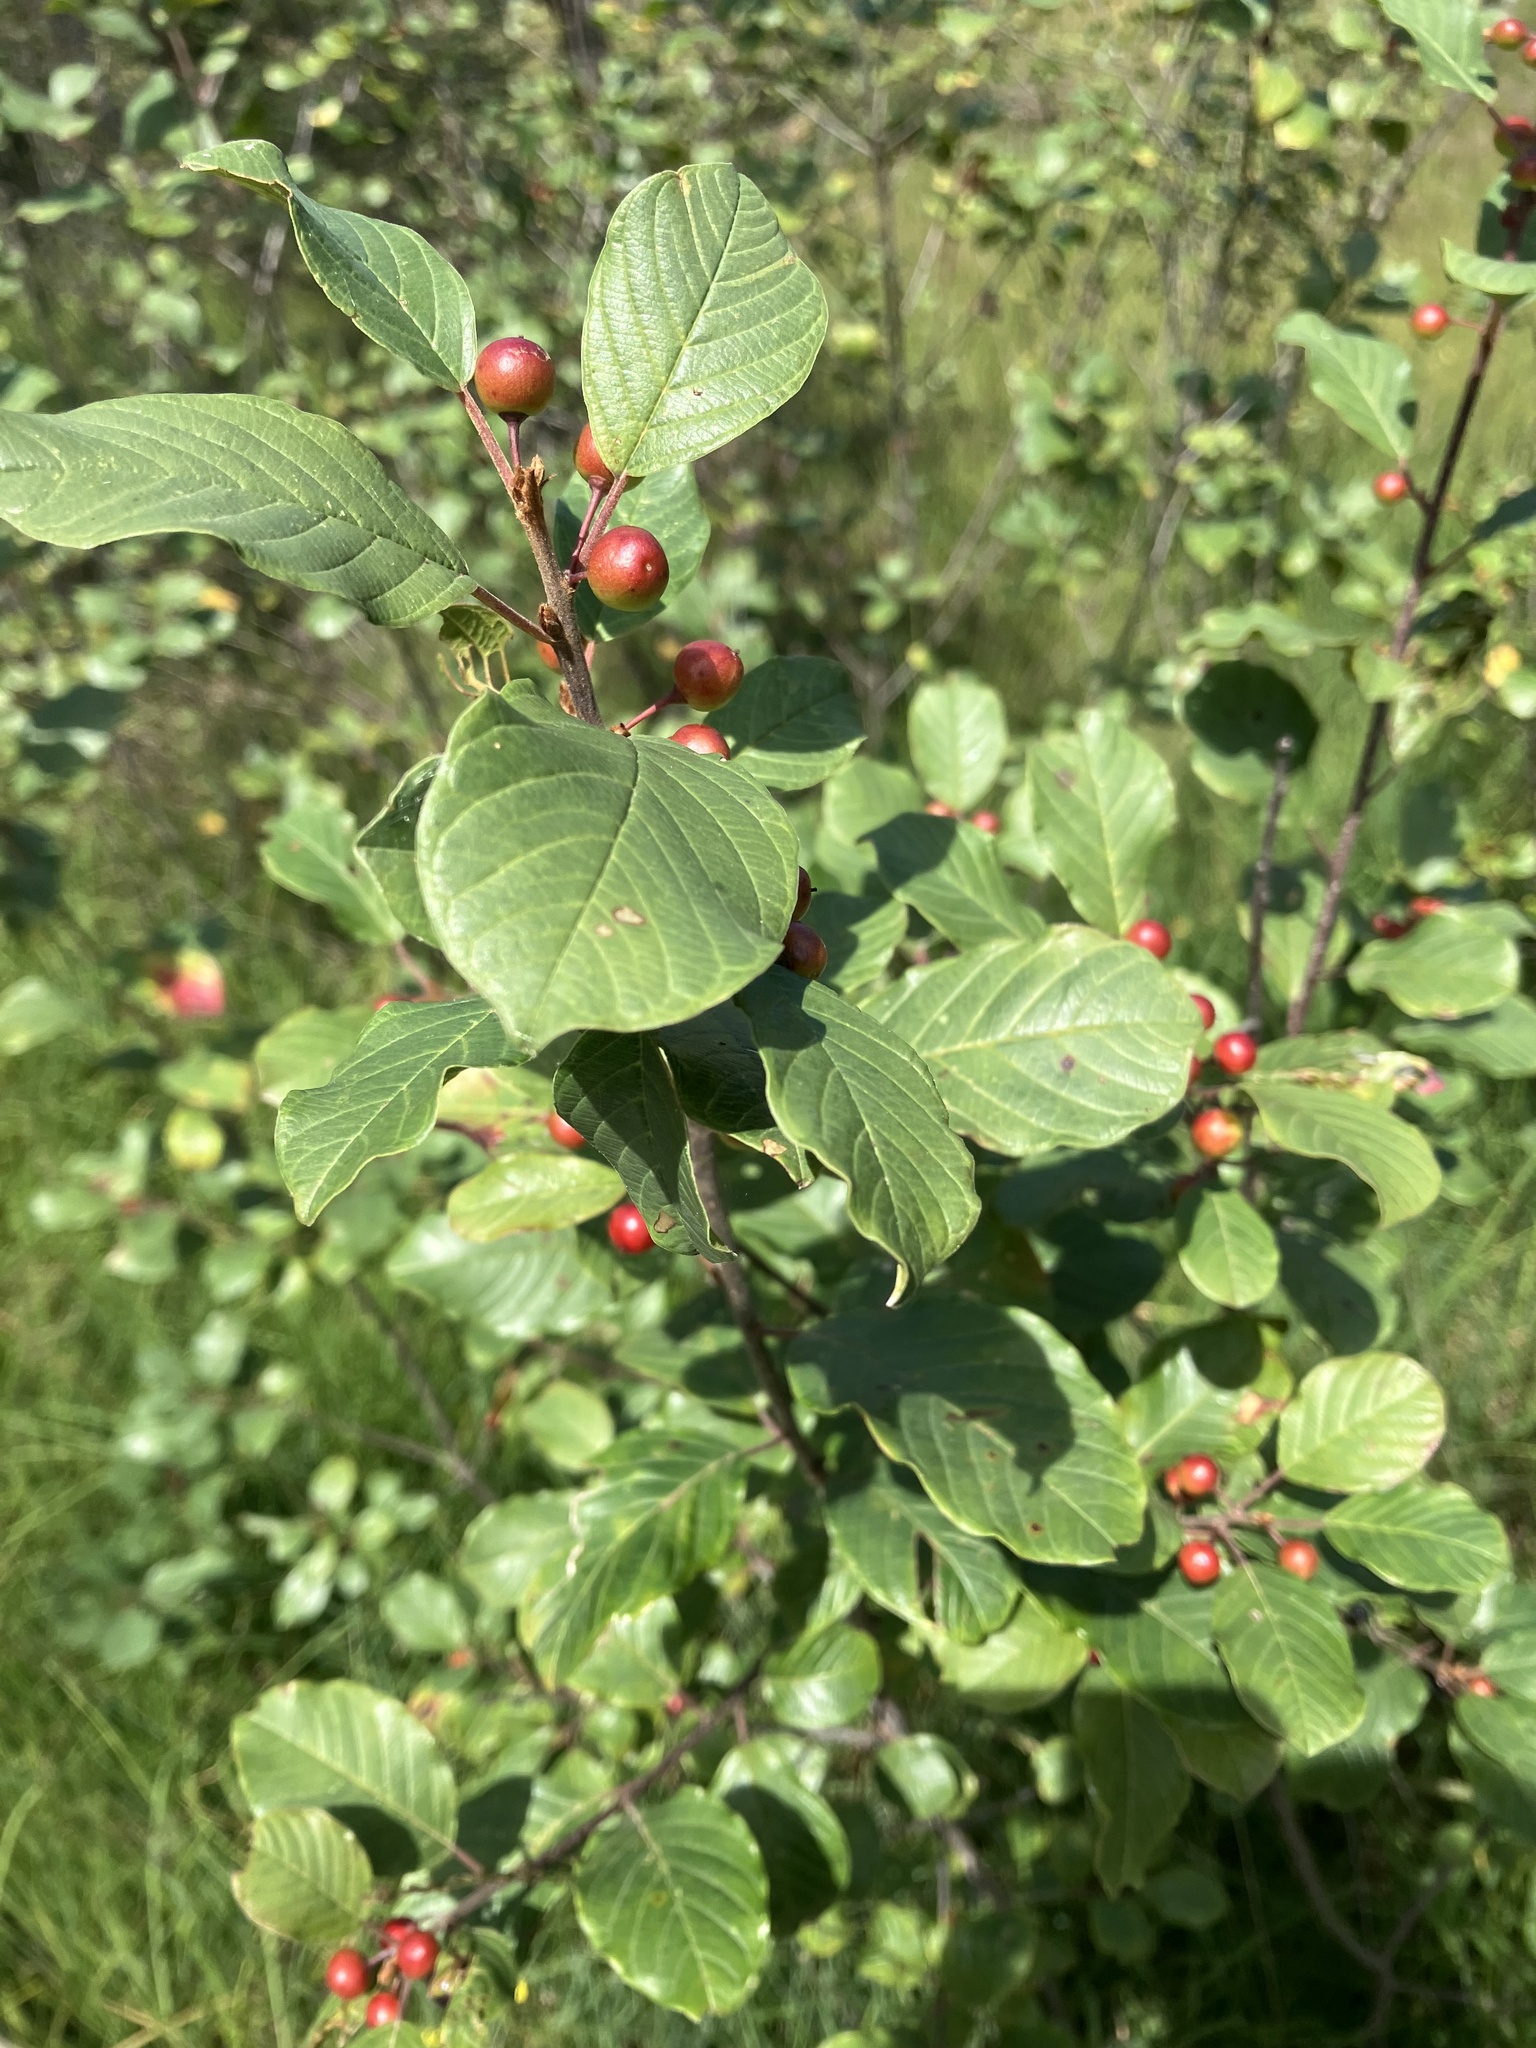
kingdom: Plantae
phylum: Tracheophyta
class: Magnoliopsida
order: Rosales
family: Rhamnaceae
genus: Frangula
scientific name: Frangula alnus
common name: Alder buckthorn
